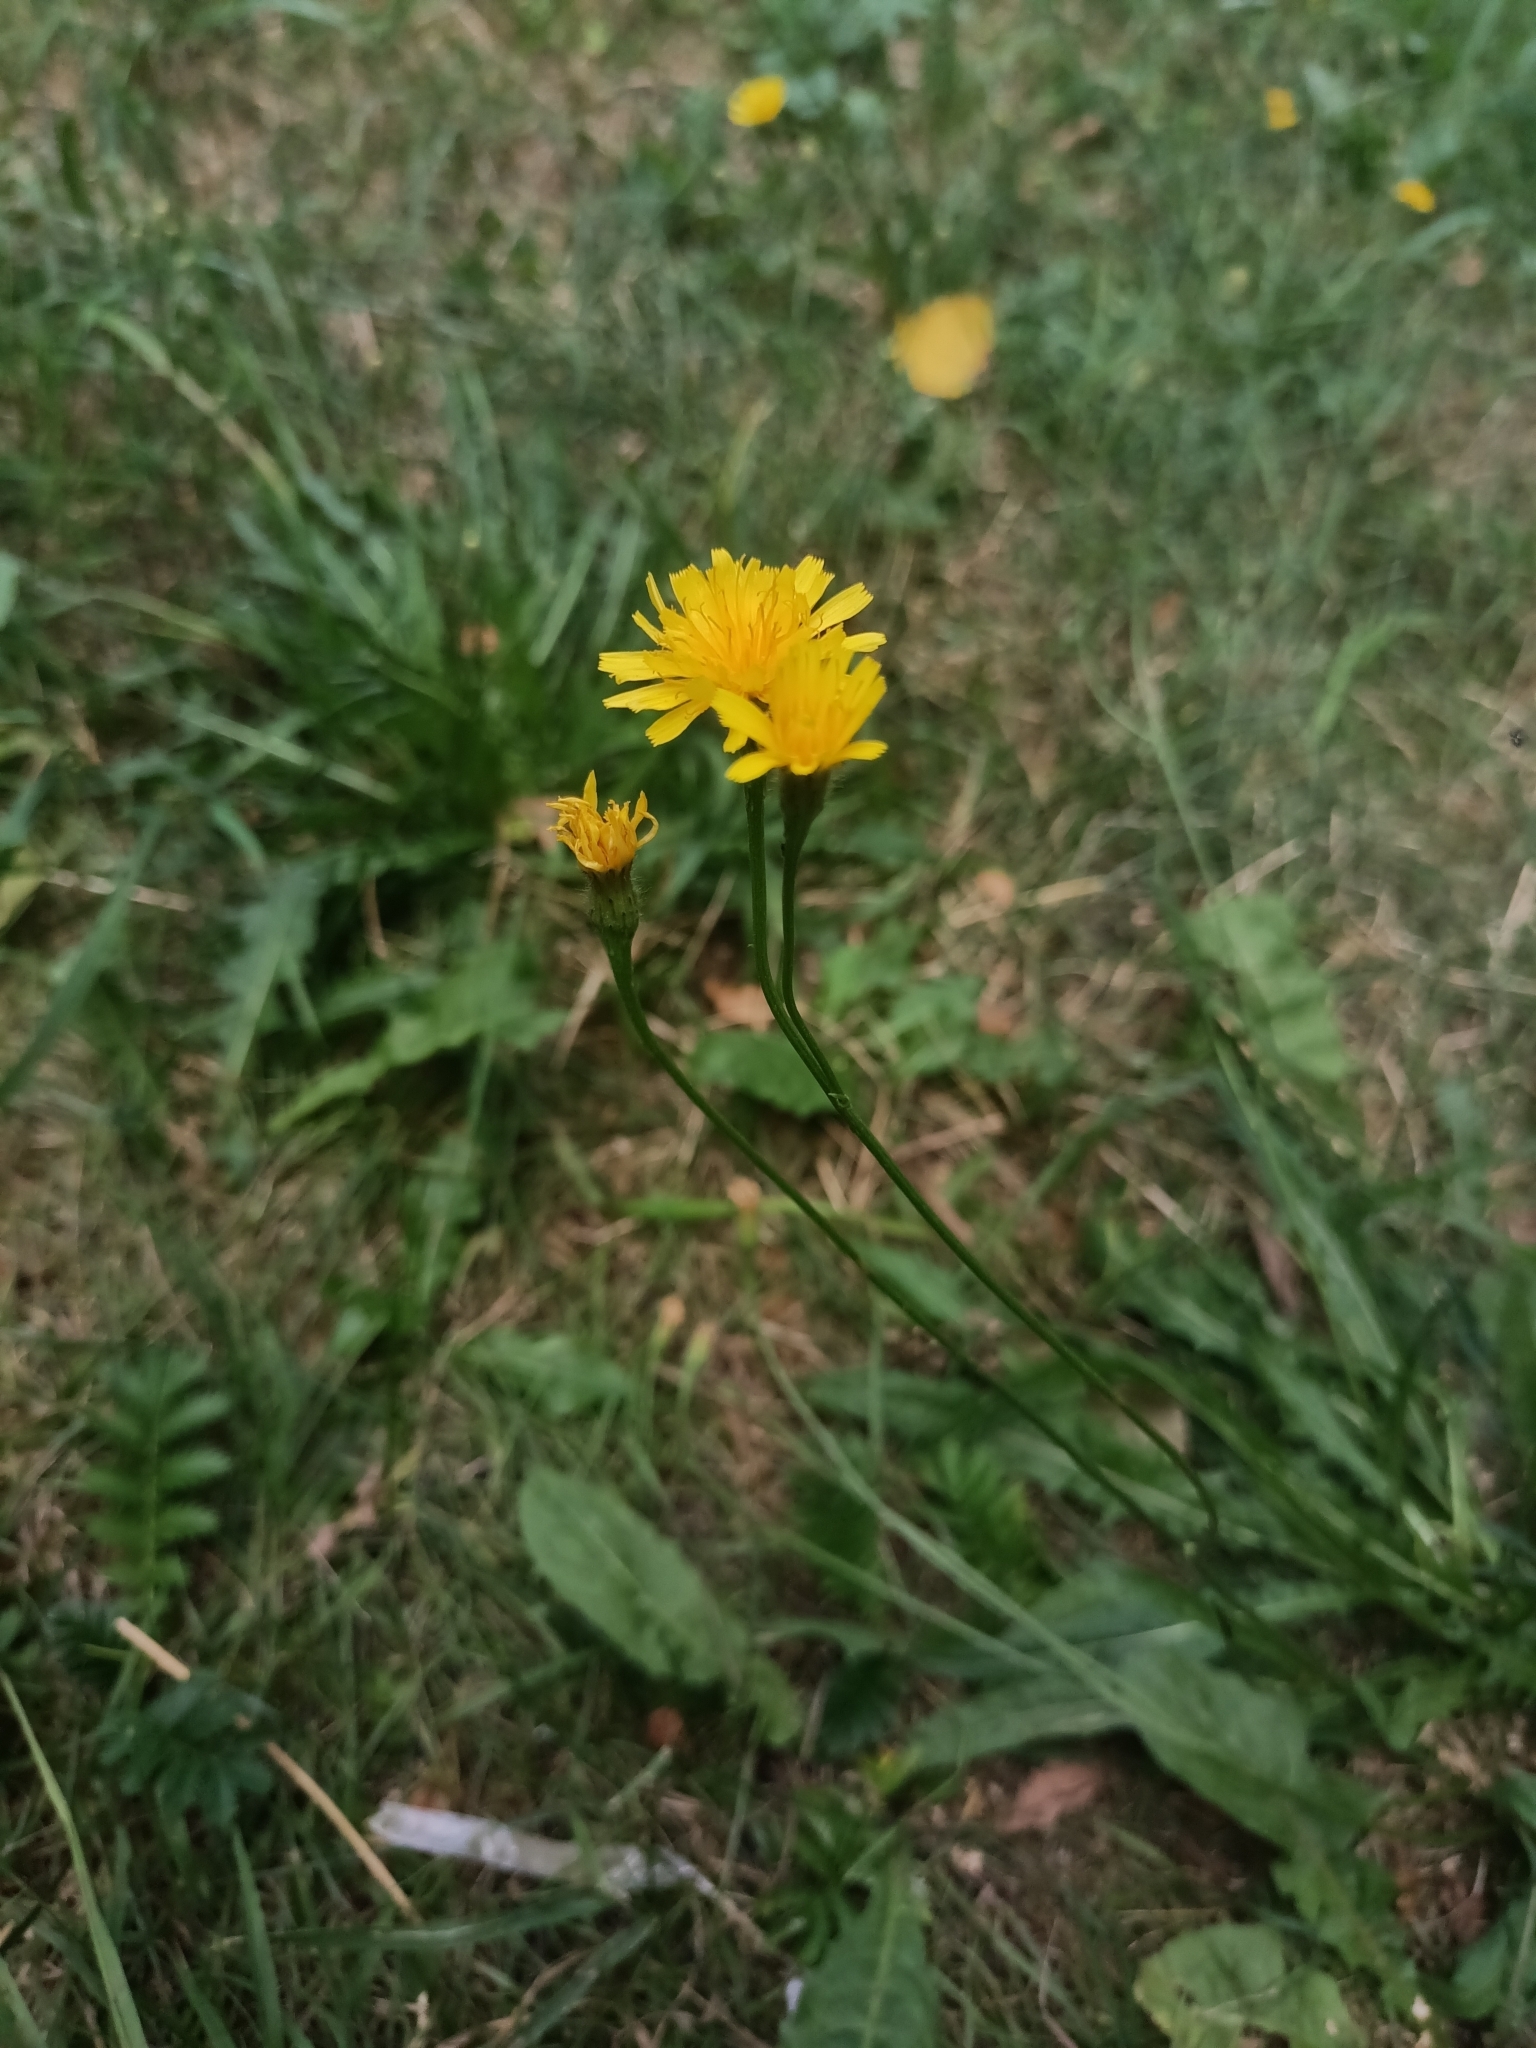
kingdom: Plantae
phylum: Tracheophyta
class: Magnoliopsida
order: Asterales
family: Asteraceae
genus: Scorzoneroides
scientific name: Scorzoneroides autumnalis
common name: Autumn hawkbit
